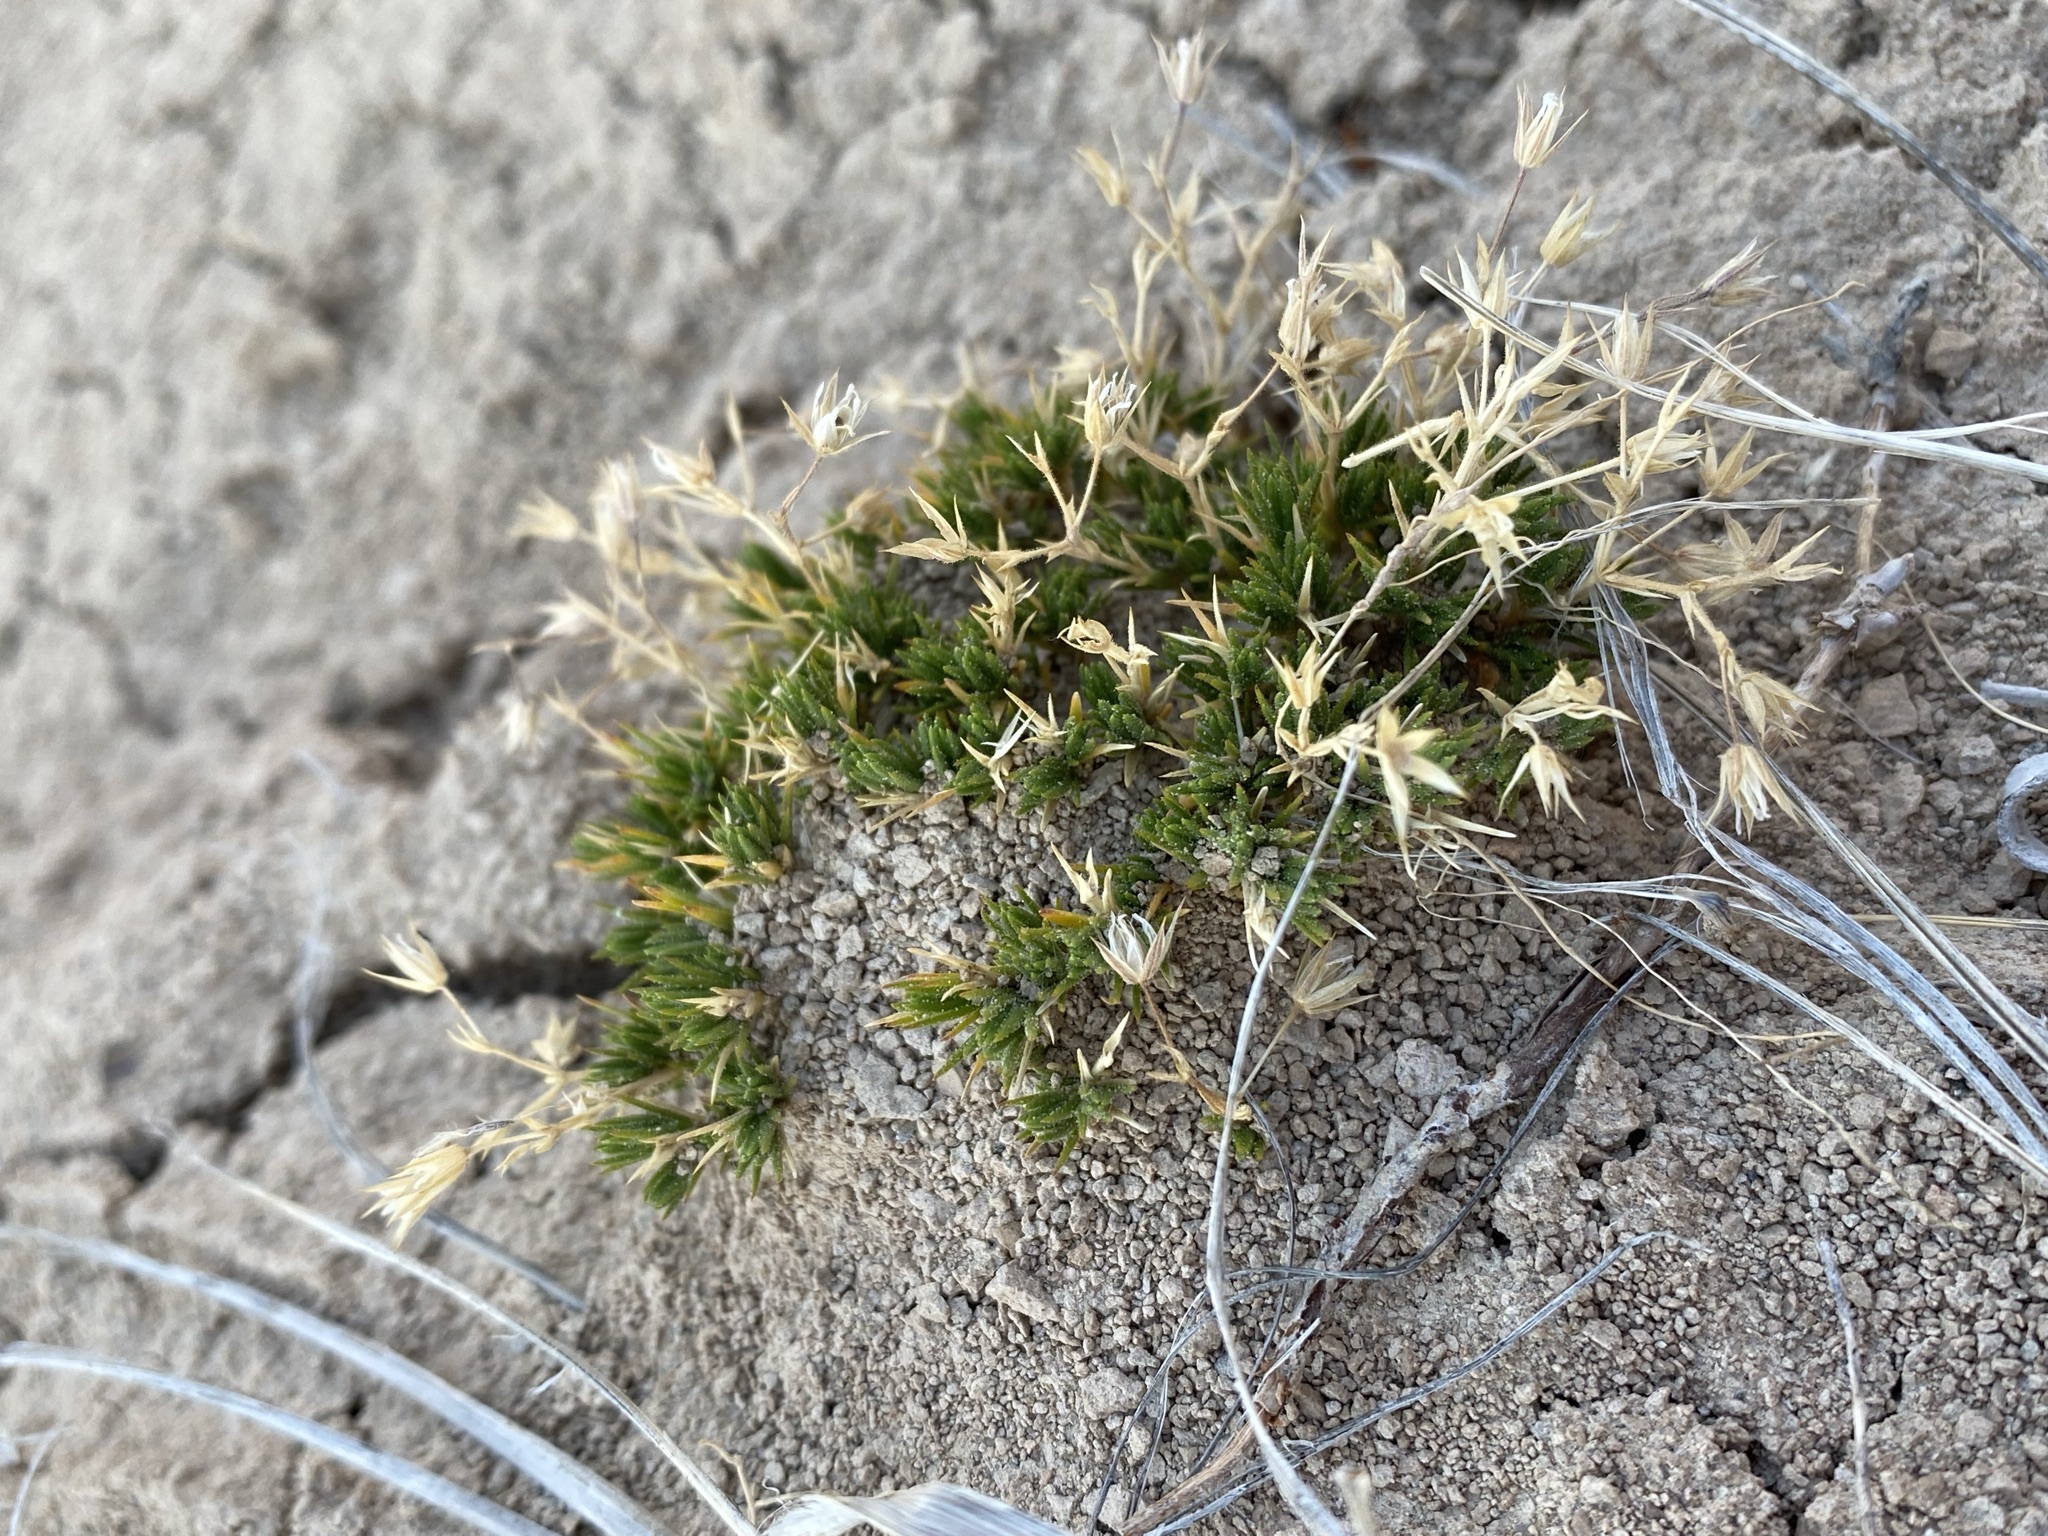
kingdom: Plantae
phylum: Tracheophyta
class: Magnoliopsida
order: Caryophyllales
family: Caryophyllaceae
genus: Sabulina
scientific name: Sabulina nuttallii
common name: Nuttall's stitchwort
